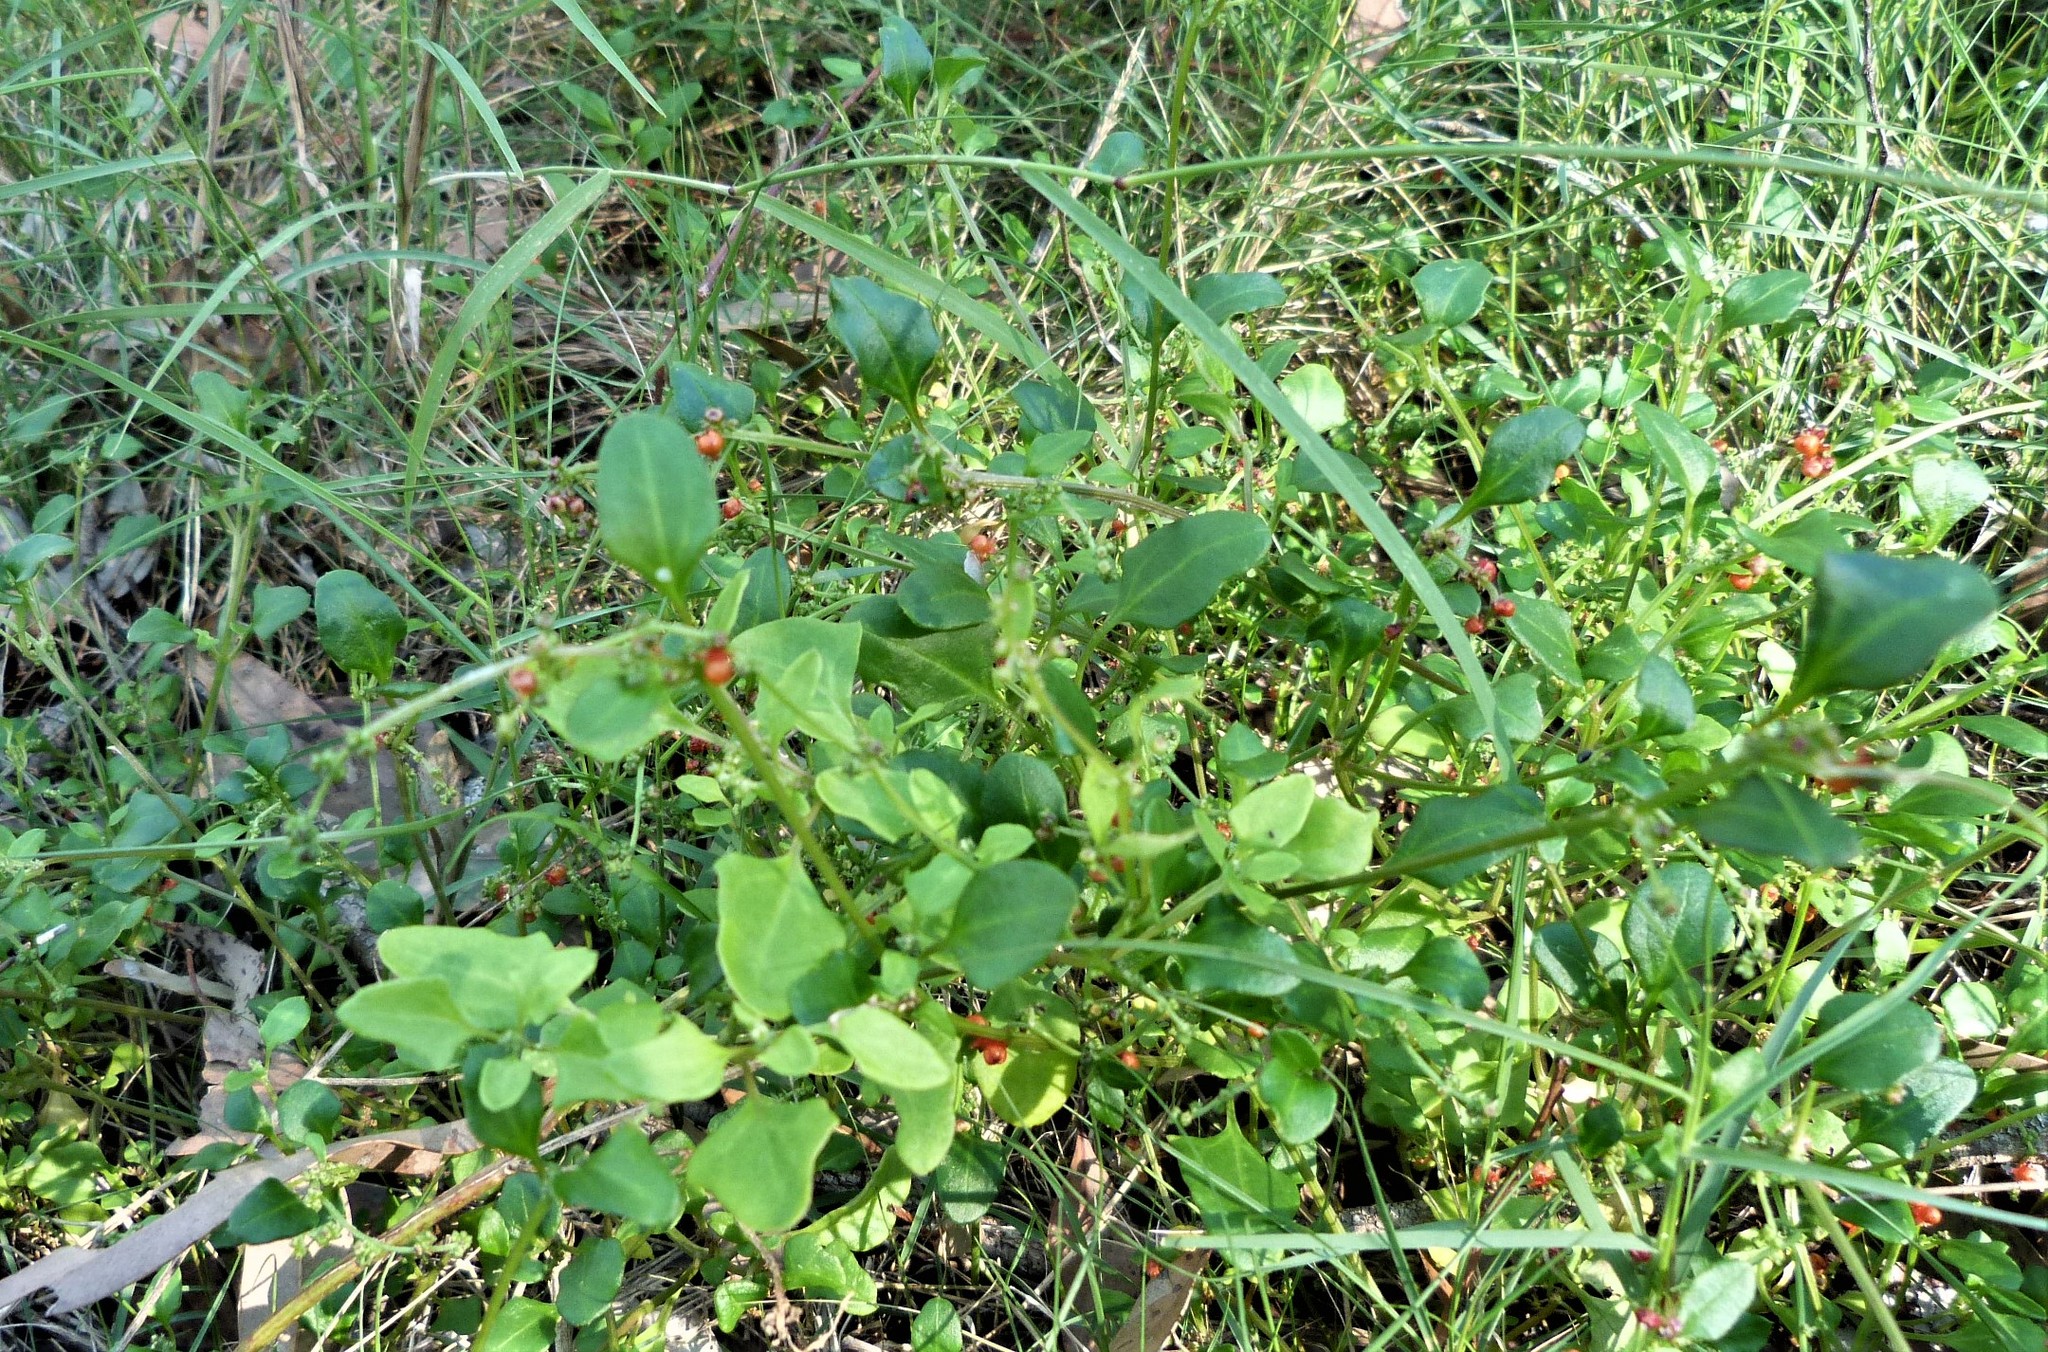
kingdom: Plantae
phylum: Tracheophyta
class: Magnoliopsida
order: Caryophyllales
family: Amaranthaceae
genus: Chenopodium
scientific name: Chenopodium robertianum
